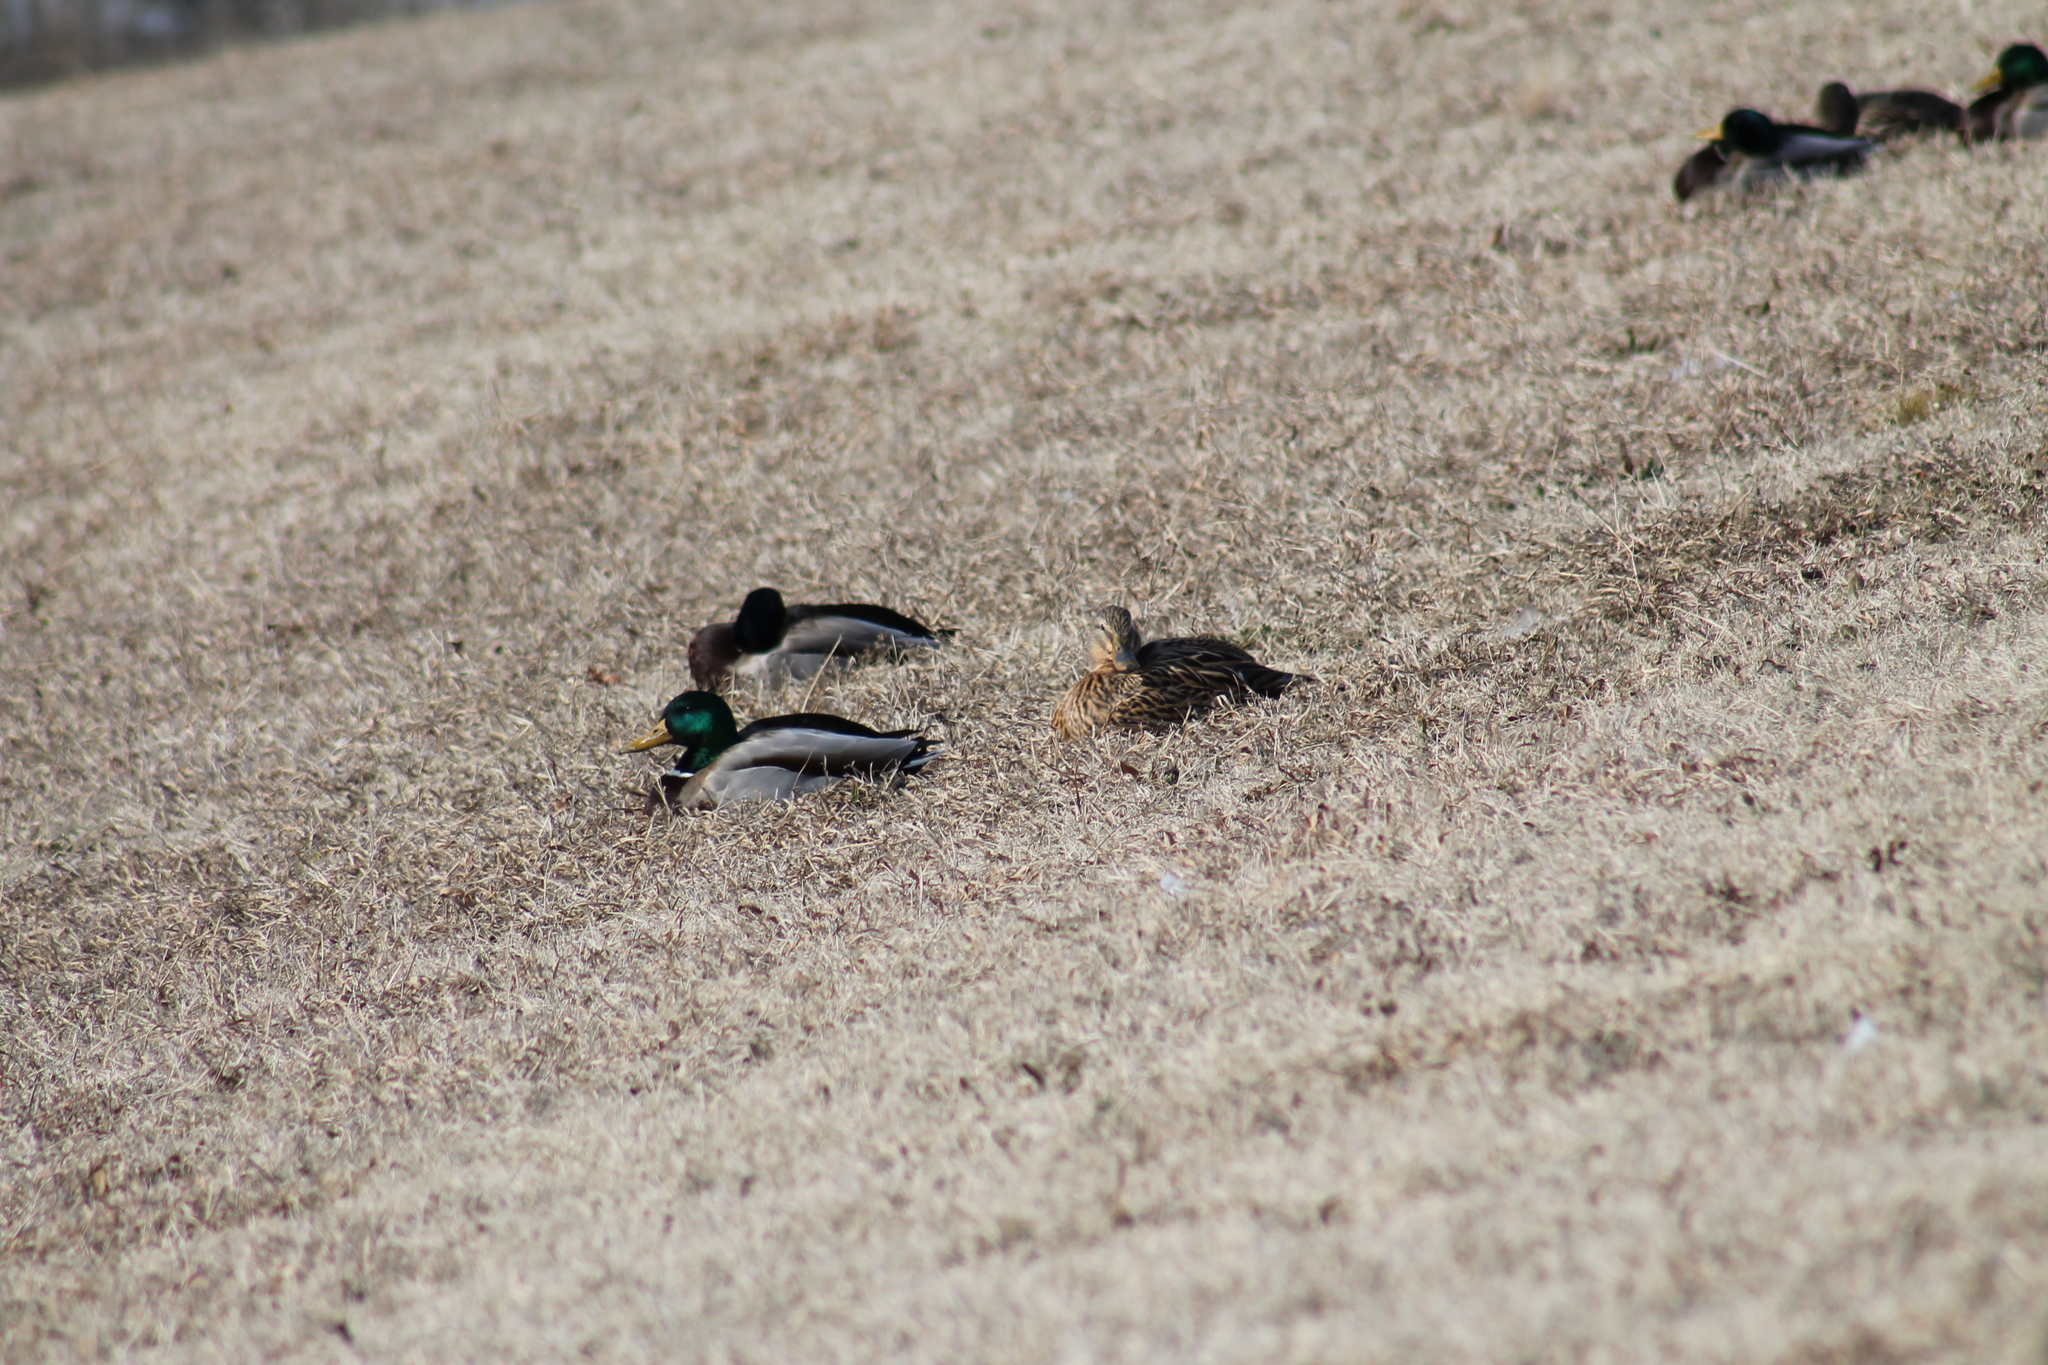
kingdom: Animalia
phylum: Chordata
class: Aves
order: Anseriformes
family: Anatidae
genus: Anas
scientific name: Anas platyrhynchos
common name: Mallard
